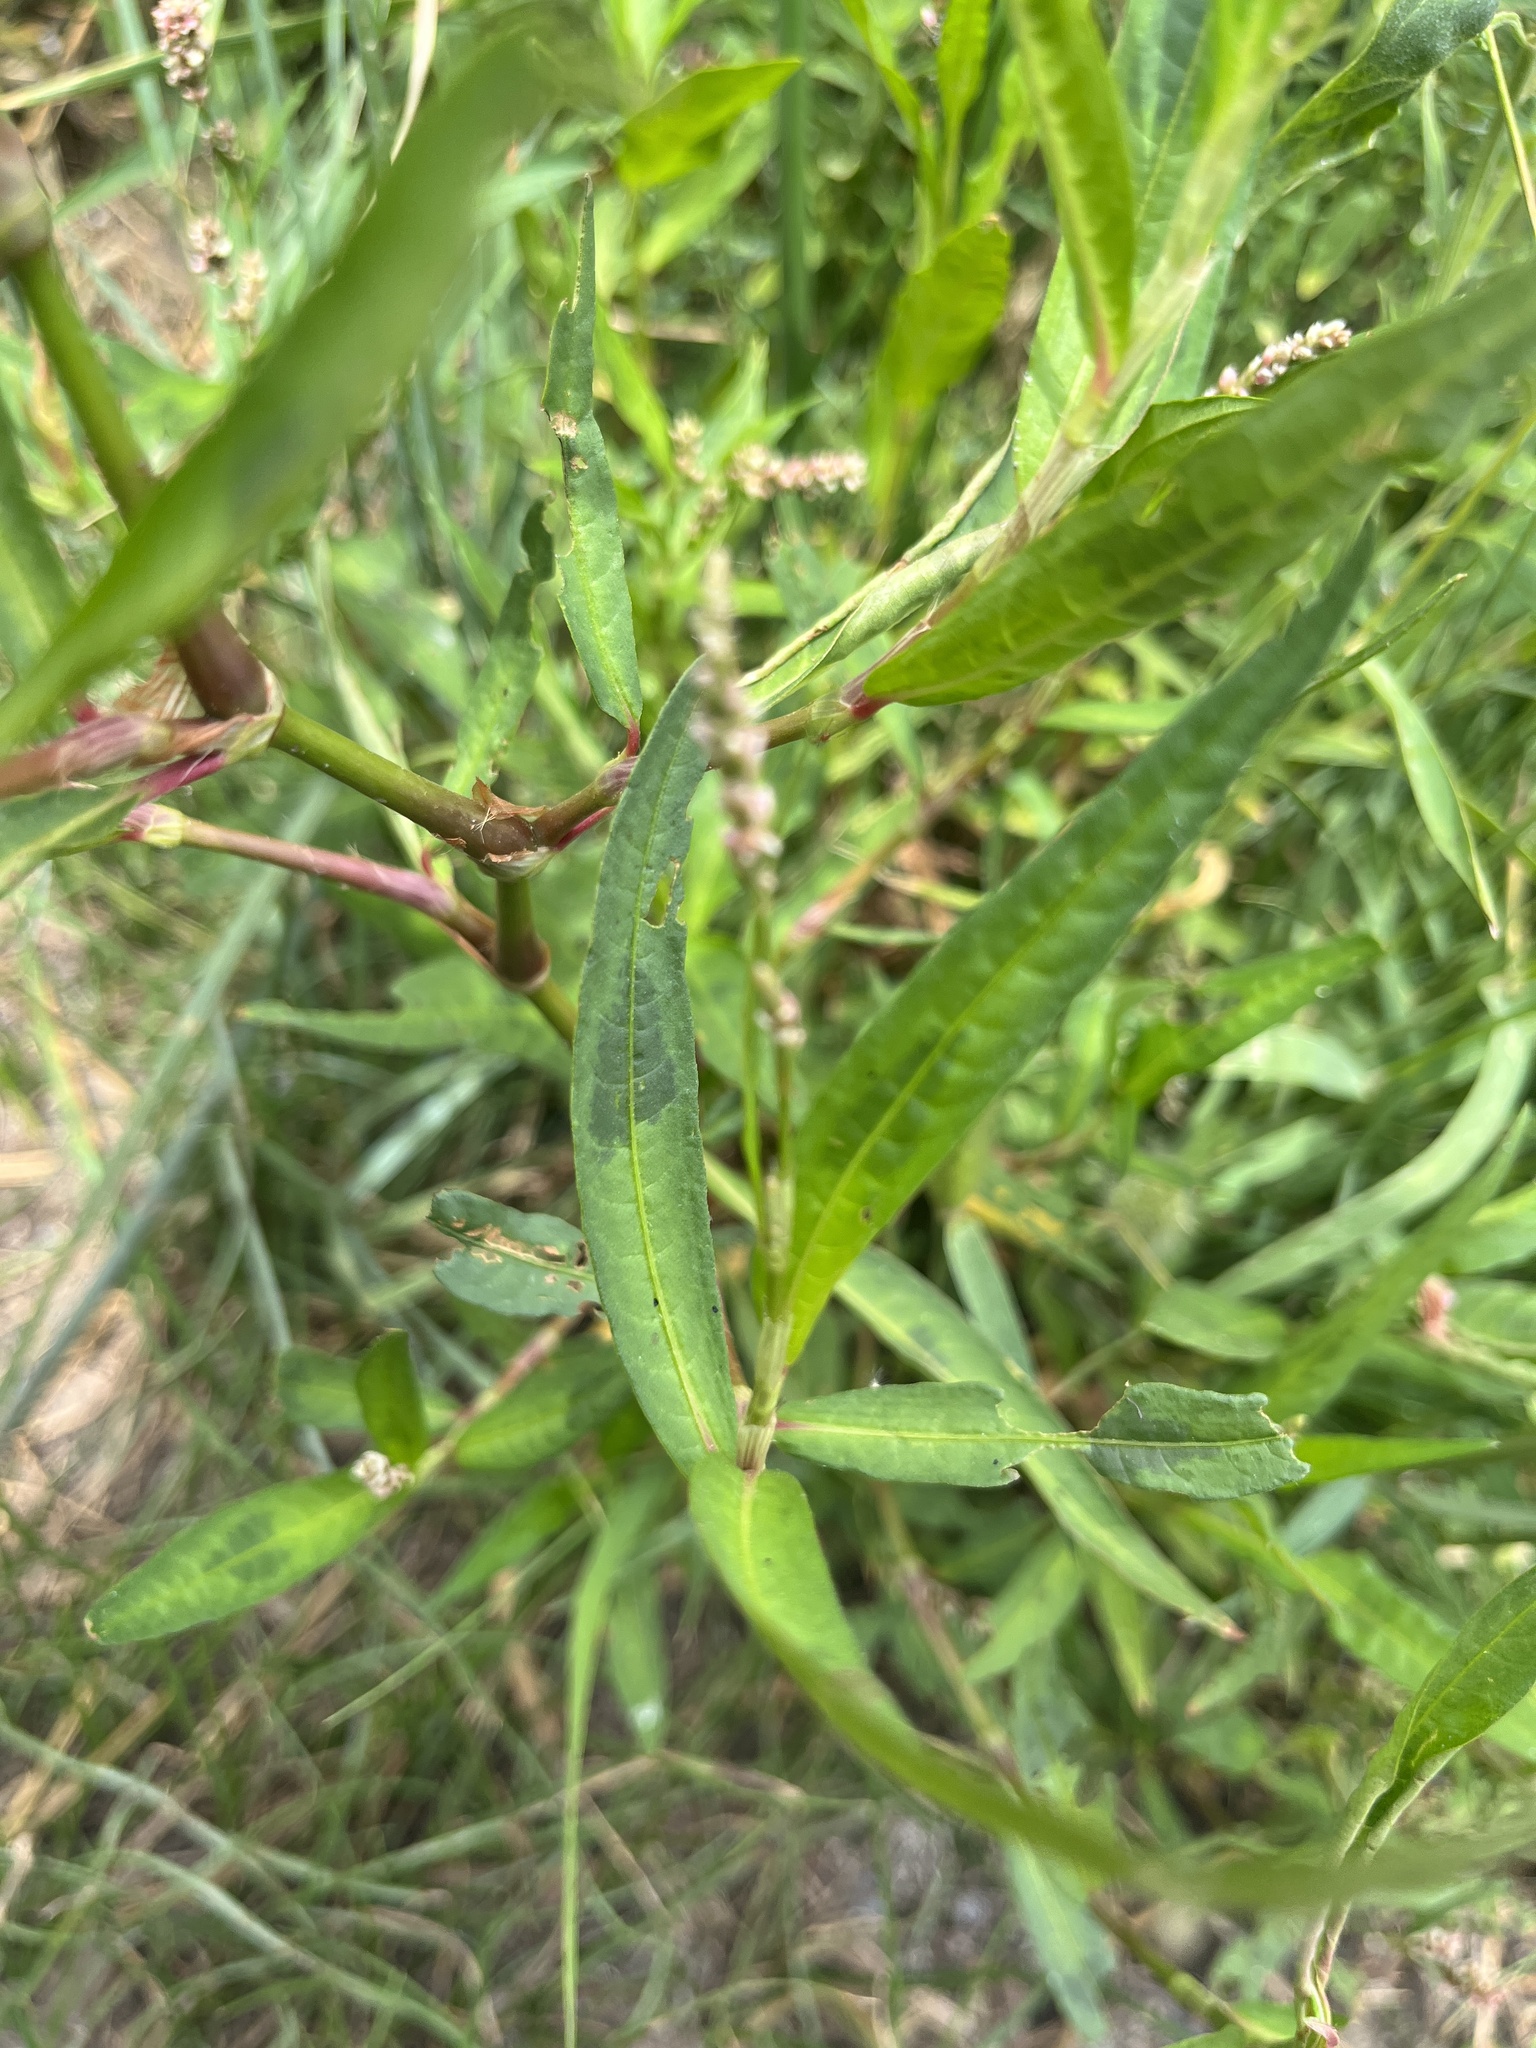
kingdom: Plantae
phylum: Tracheophyta
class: Magnoliopsida
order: Caryophyllales
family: Polygonaceae
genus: Persicaria
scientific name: Persicaria maculosa
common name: Redshank
